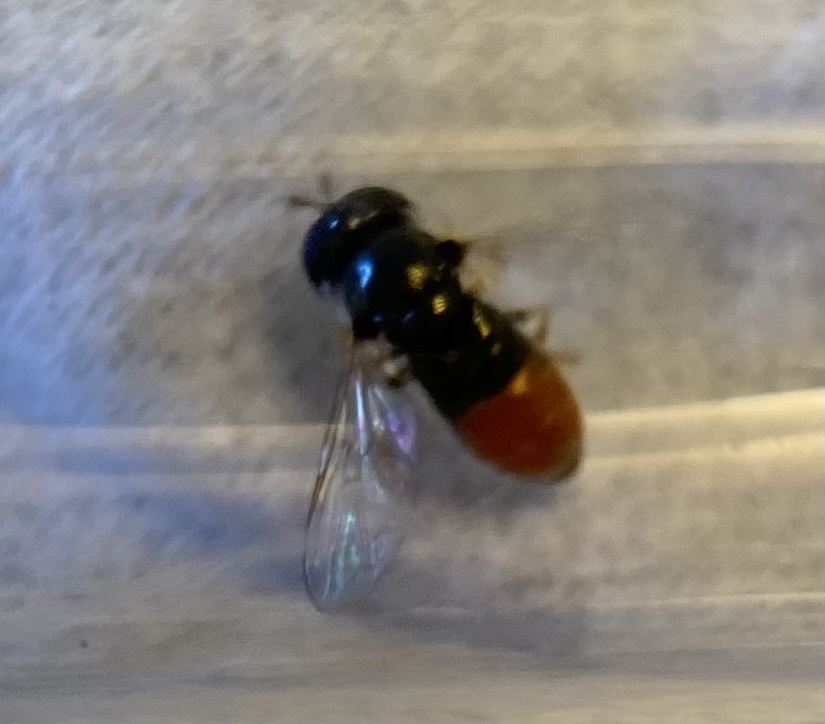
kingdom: Animalia
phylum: Arthropoda
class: Insecta
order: Diptera
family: Syrphidae
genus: Paragus
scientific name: Paragus haemorrhous
